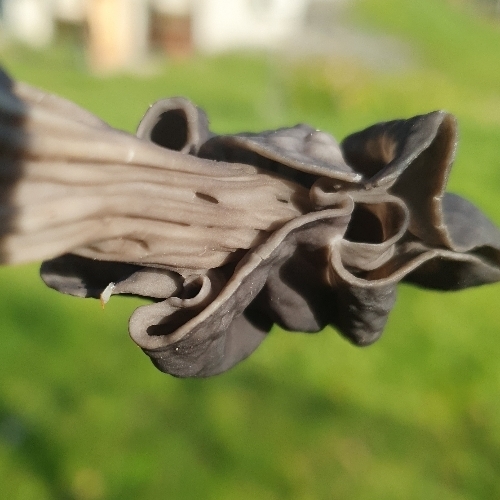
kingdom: Fungi
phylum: Ascomycota
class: Pezizomycetes
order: Pezizales
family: Helvellaceae
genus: Helvella
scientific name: Helvella lacunosa
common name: Elfin saddle
